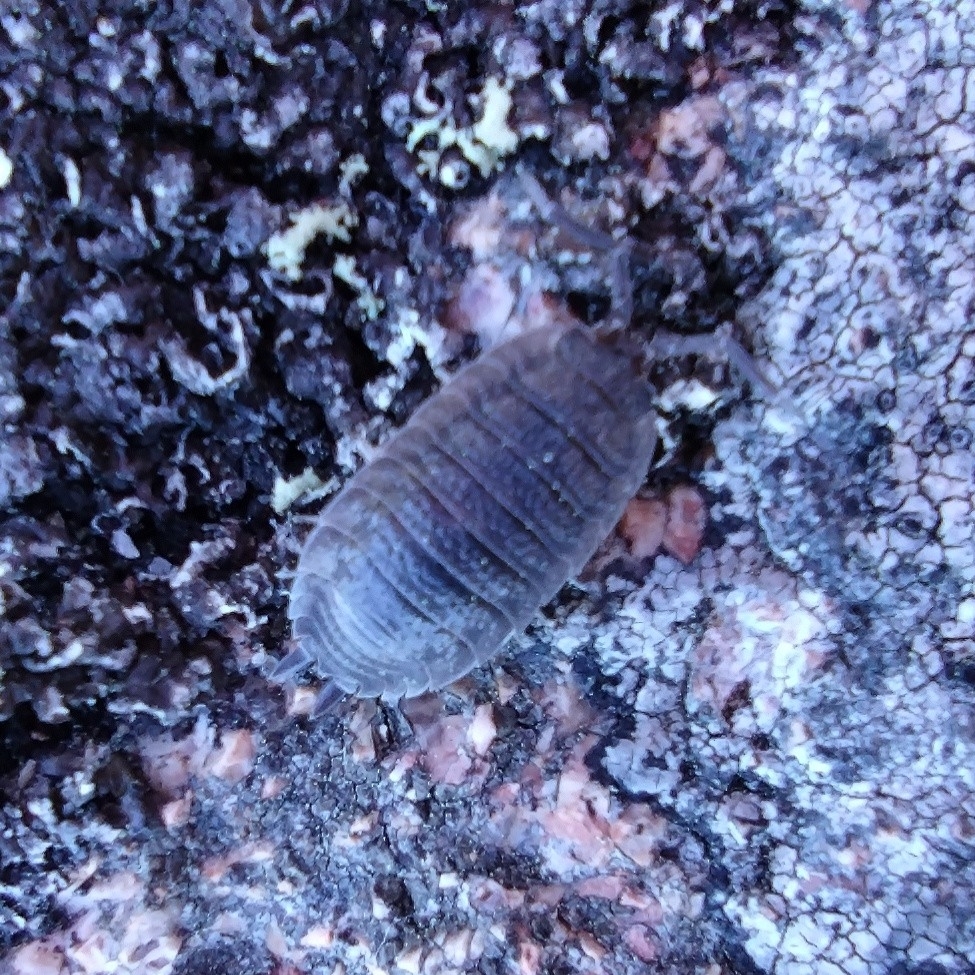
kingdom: Animalia
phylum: Arthropoda
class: Malacostraca
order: Isopoda
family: Porcellionidae
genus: Porcellio
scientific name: Porcellio scaber
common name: Common rough woodlouse
